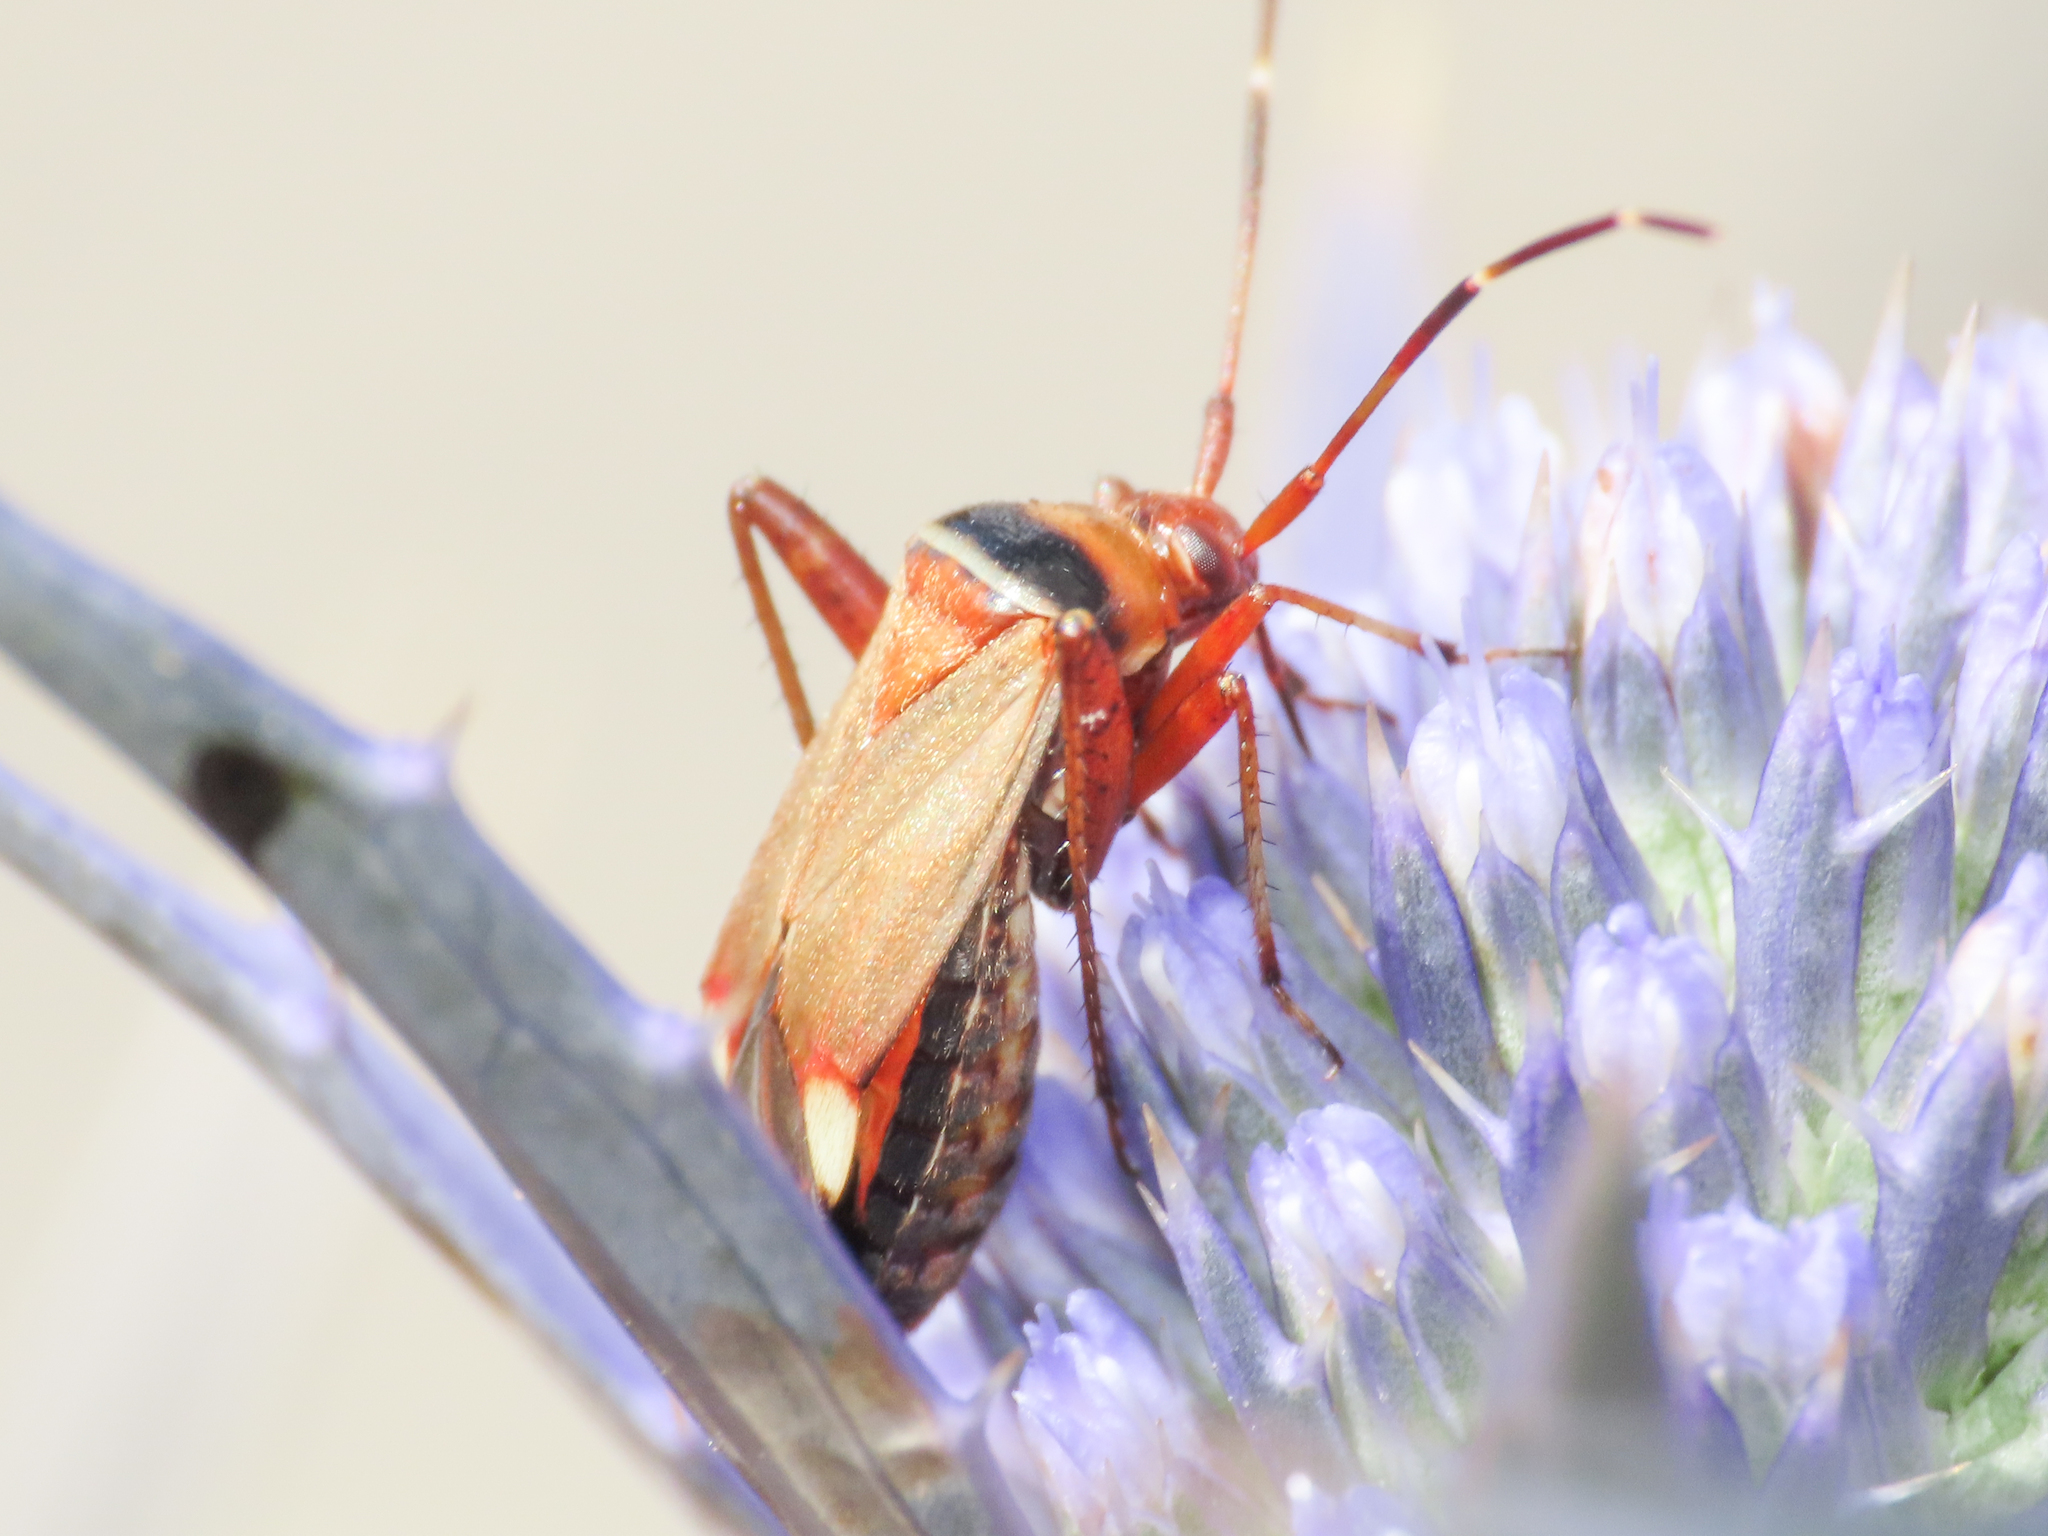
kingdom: Animalia
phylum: Arthropoda
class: Insecta
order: Hemiptera
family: Miridae
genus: Adelphocoris
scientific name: Adelphocoris vandalicus
